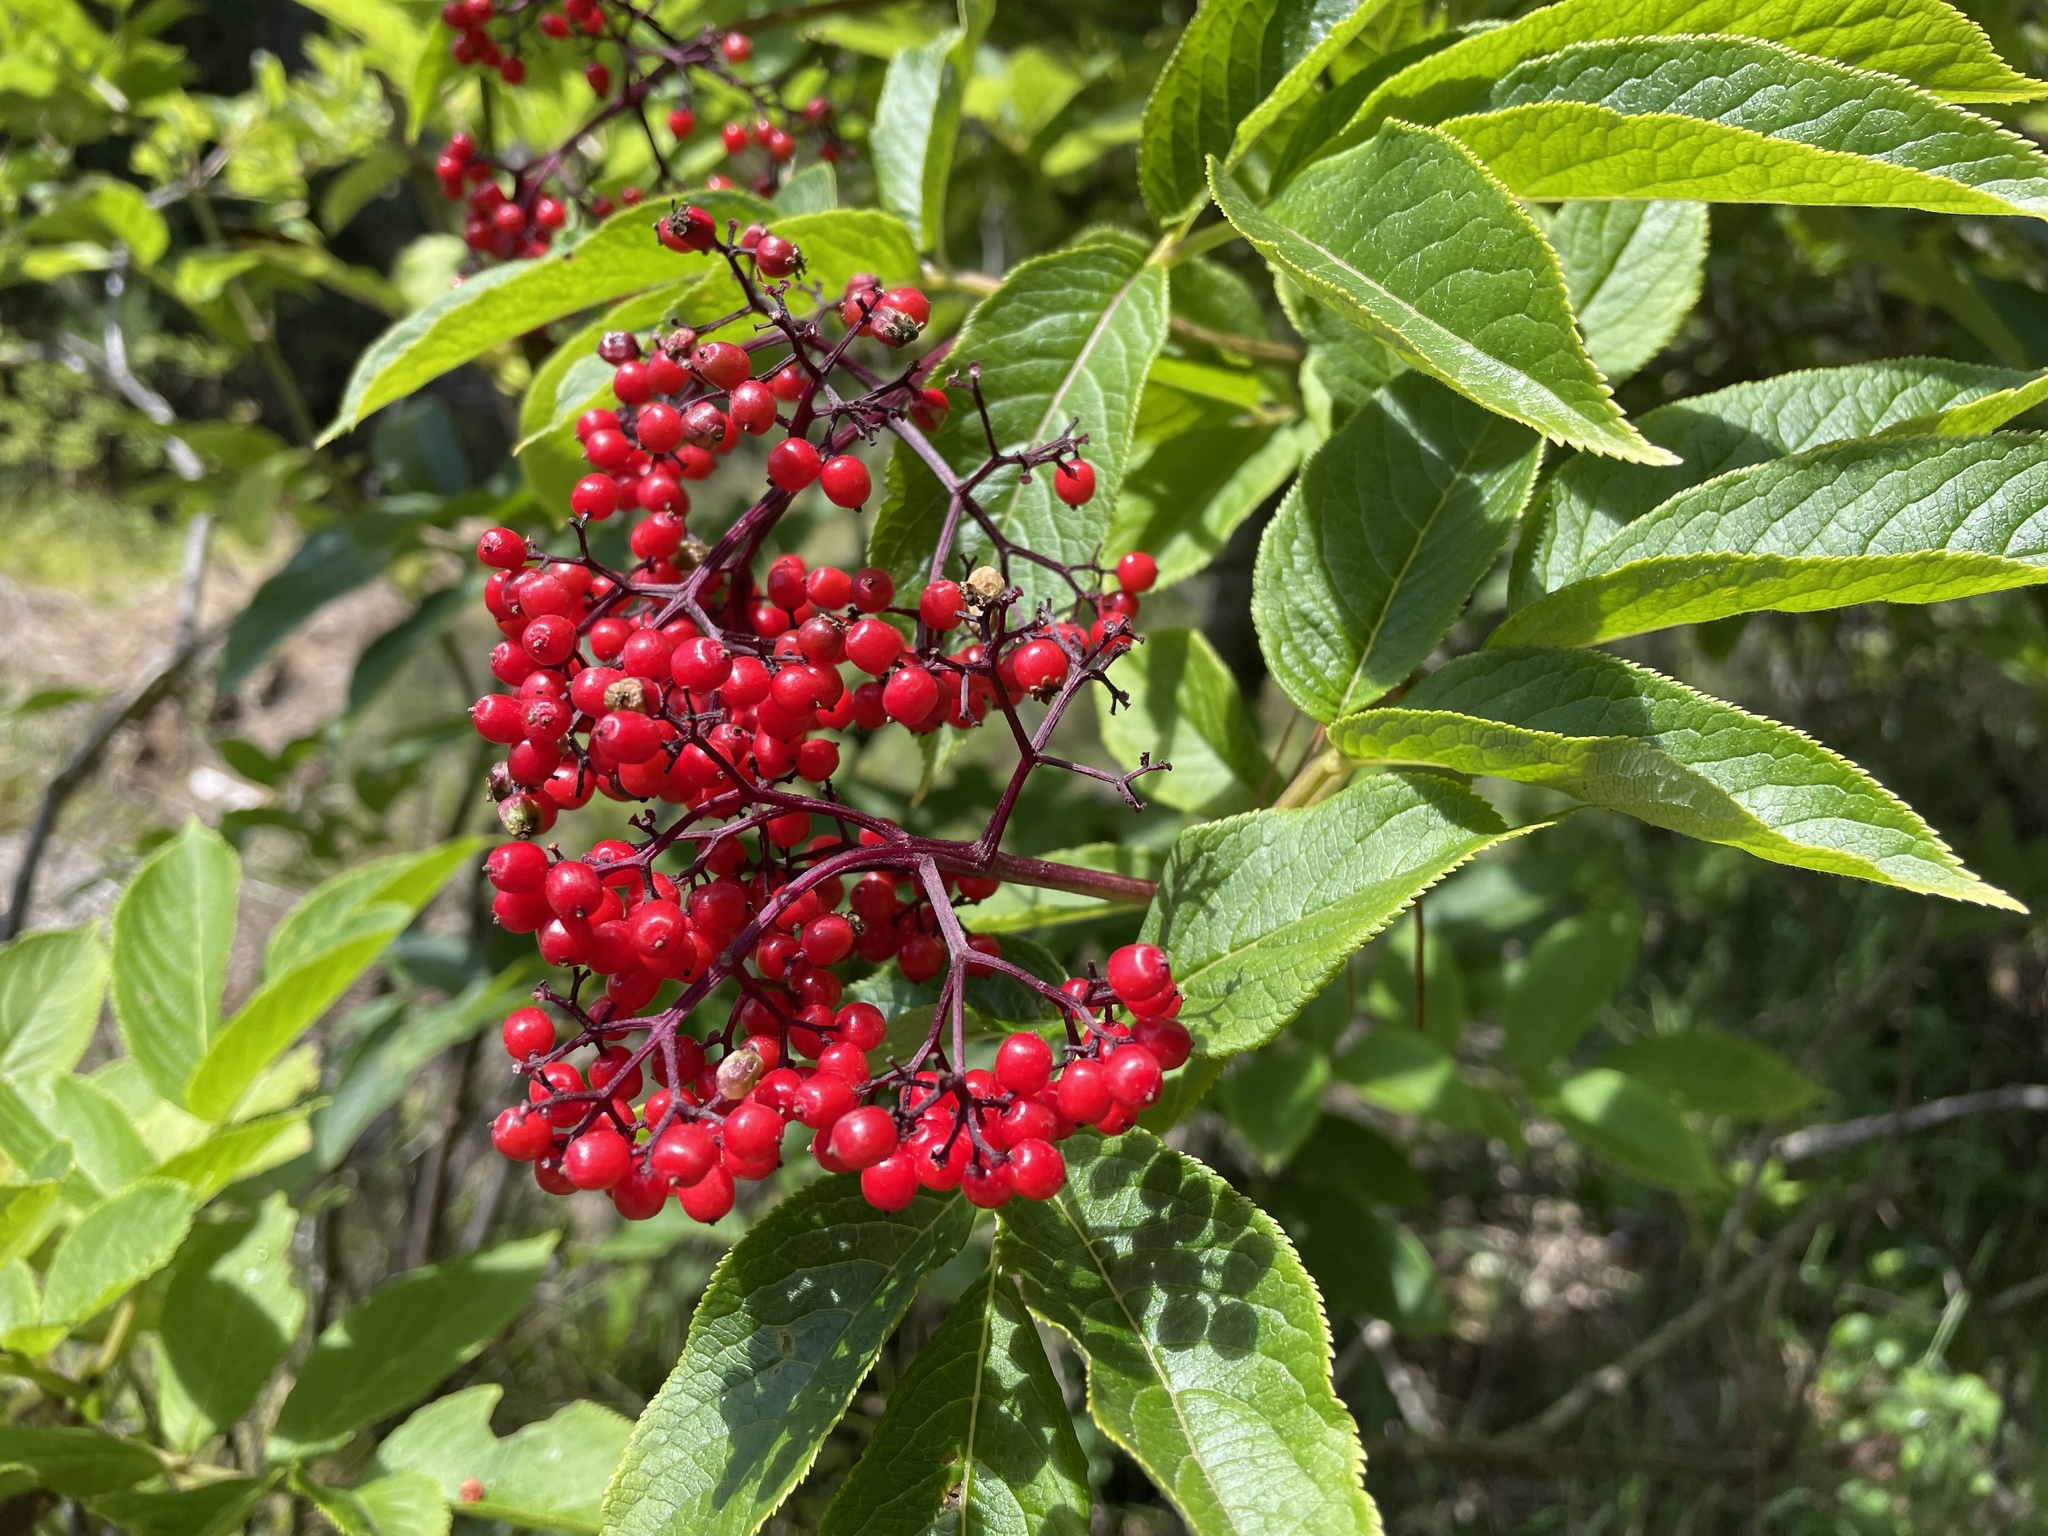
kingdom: Plantae
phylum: Tracheophyta
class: Magnoliopsida
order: Dipsacales
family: Viburnaceae
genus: Sambucus
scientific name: Sambucus racemosa
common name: Red-berried elder
